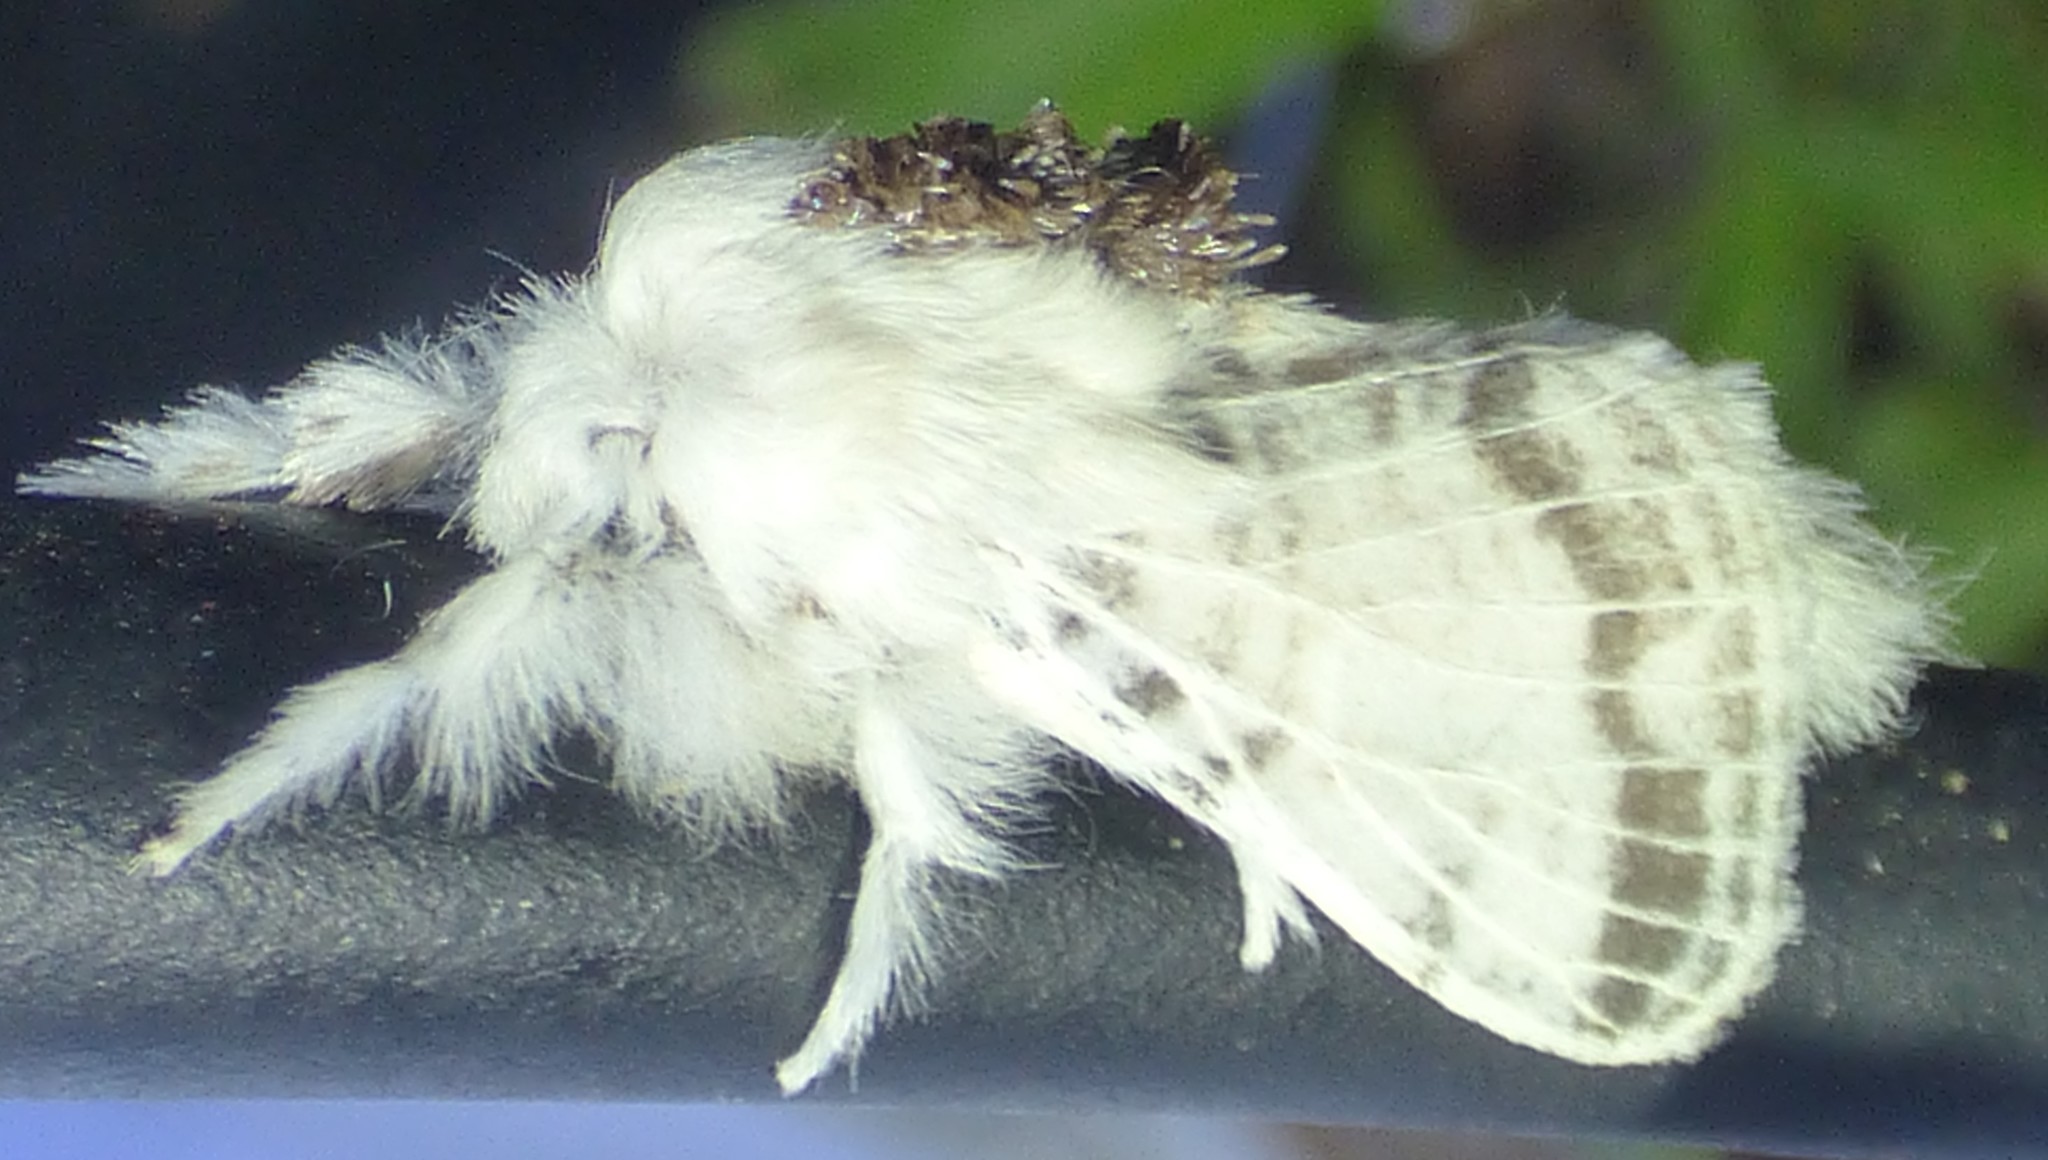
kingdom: Animalia
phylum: Arthropoda
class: Insecta
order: Lepidoptera
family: Lasiocampidae
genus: Tolype
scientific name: Tolype velleda
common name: Large tolype moth
